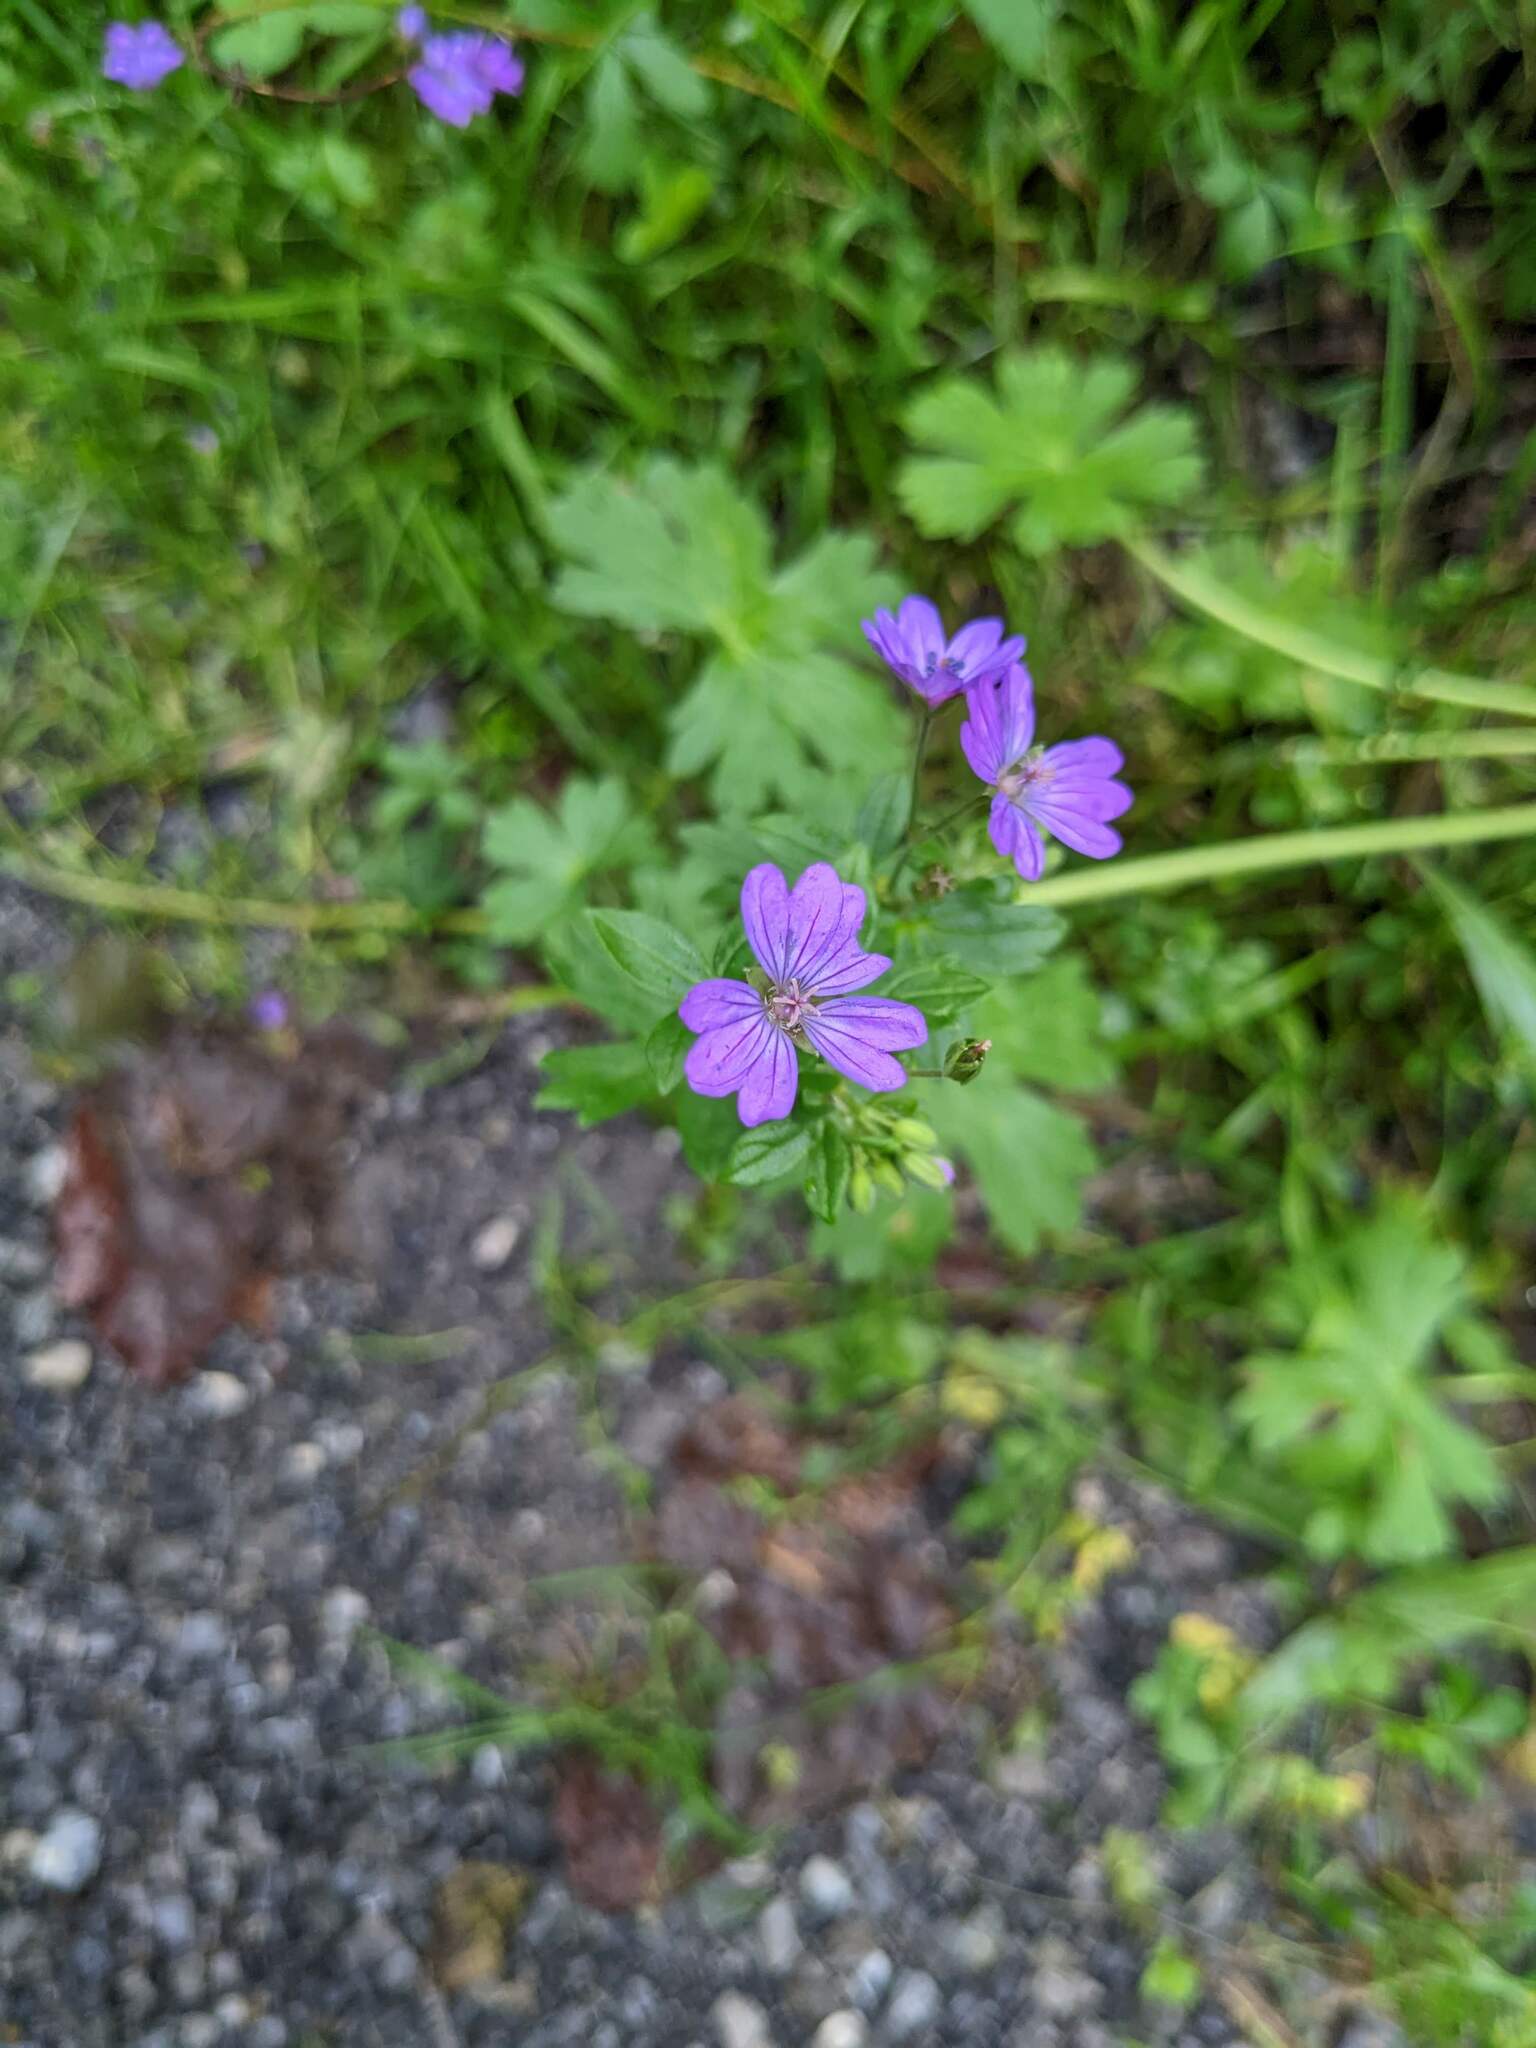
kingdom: Plantae
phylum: Tracheophyta
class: Magnoliopsida
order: Geraniales
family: Geraniaceae
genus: Geranium
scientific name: Geranium pyrenaicum
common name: Hedgerow crane's-bill
